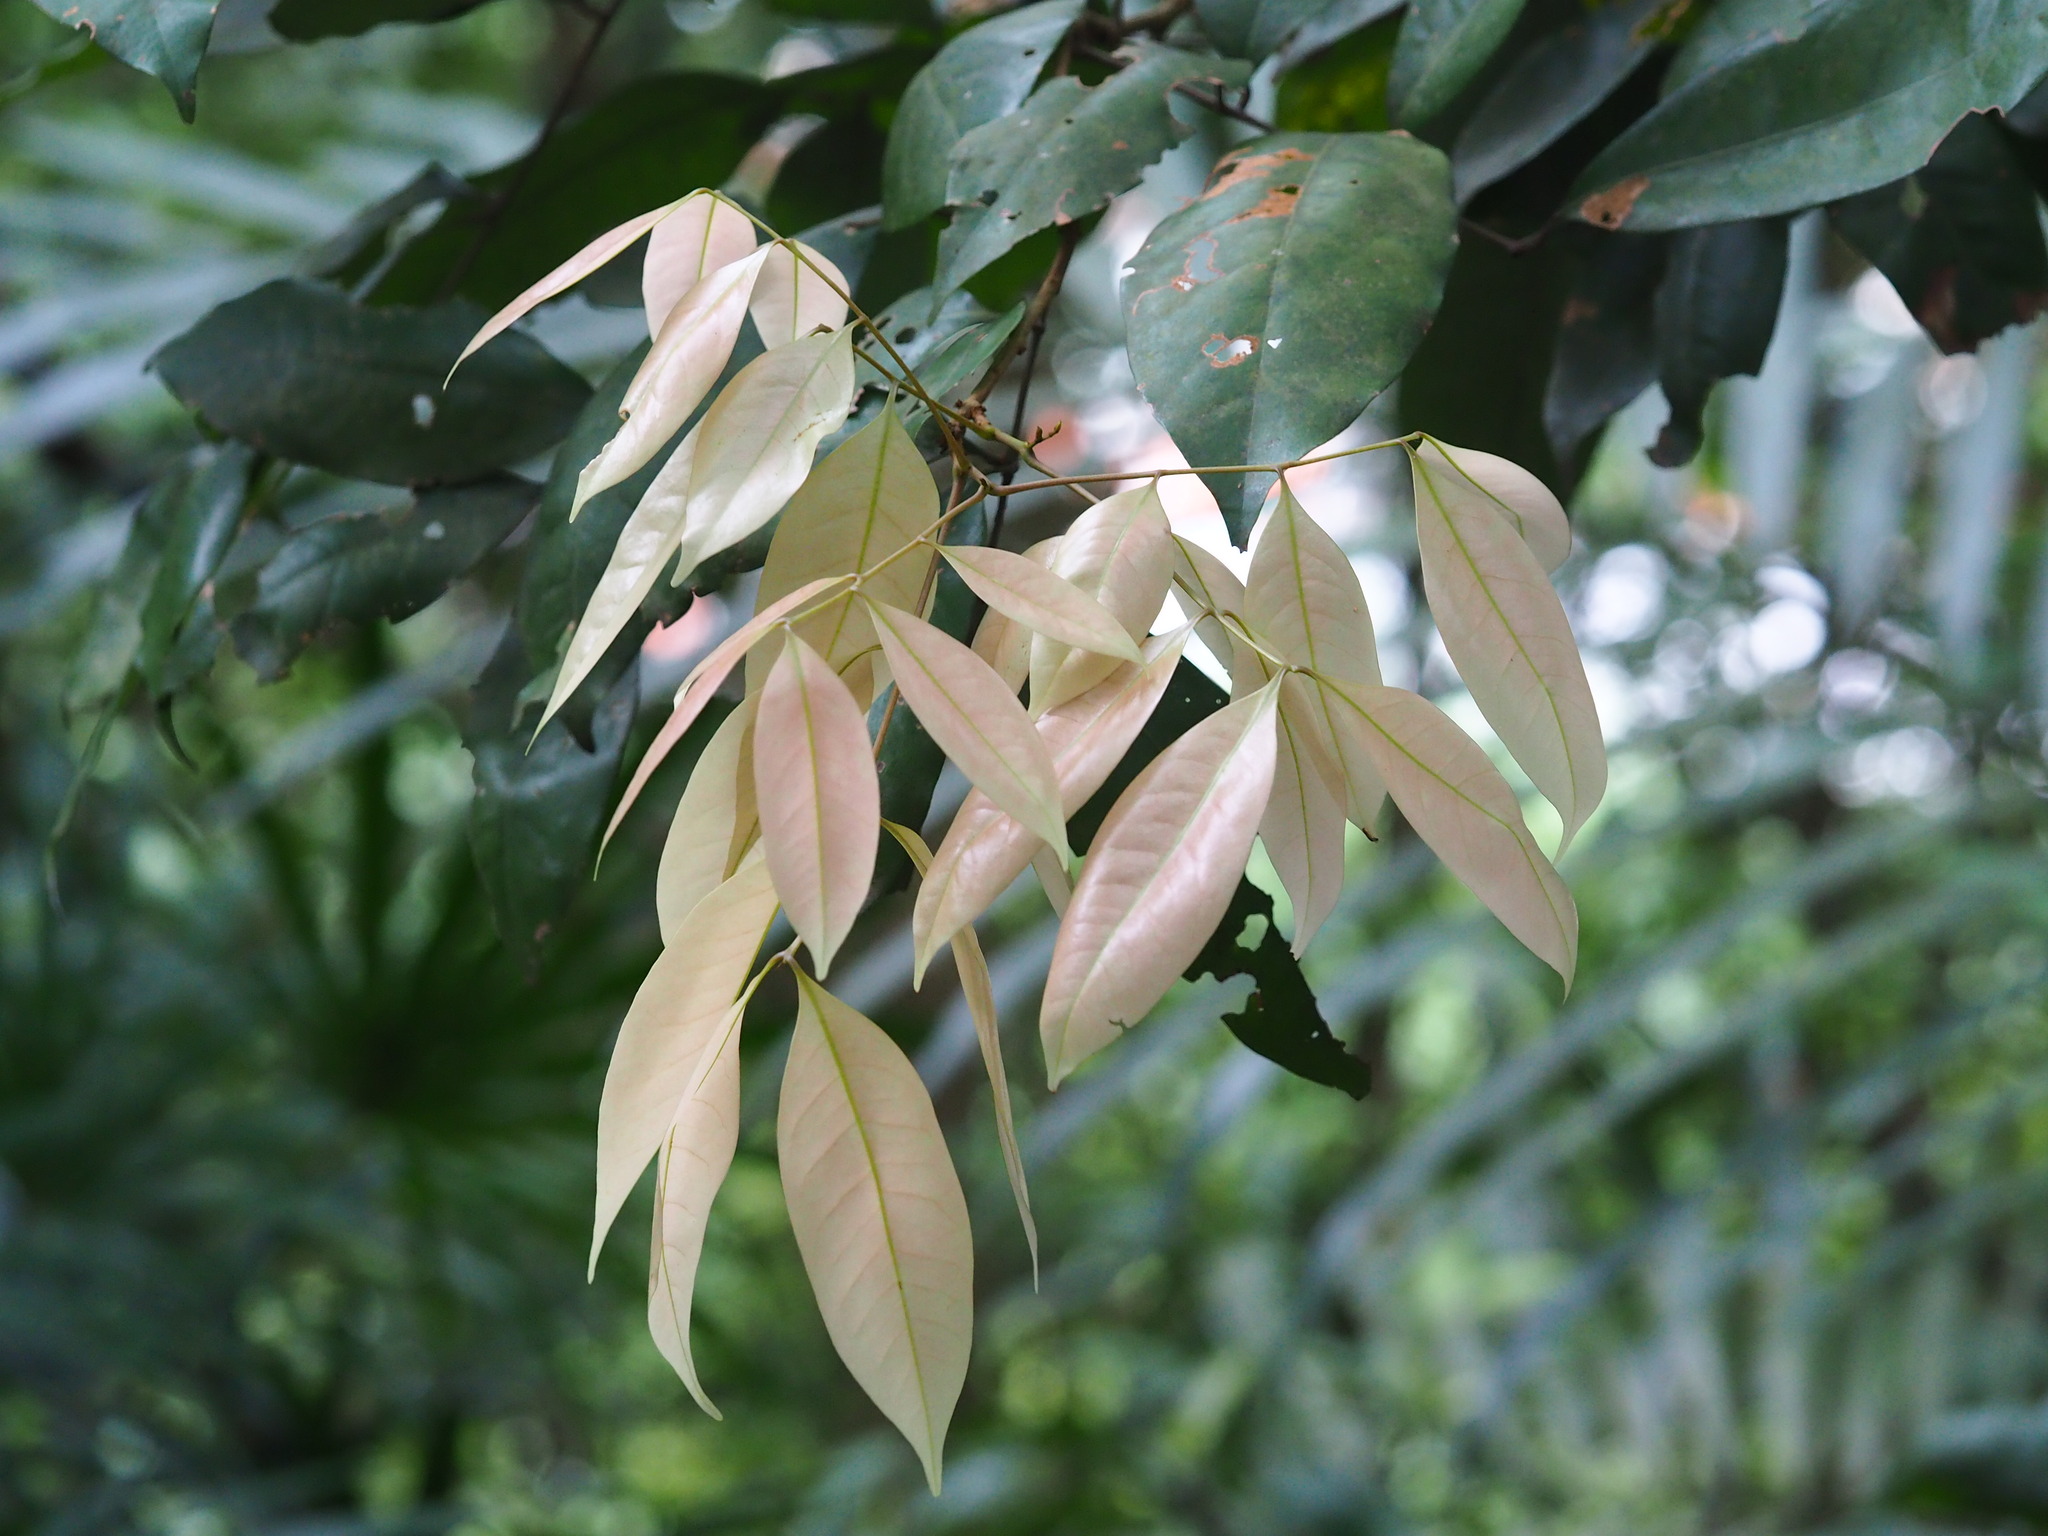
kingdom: Plantae
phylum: Tracheophyta
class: Magnoliopsida
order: Sapindales
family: Sapindaceae
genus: Dimocarpus
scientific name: Dimocarpus longan
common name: Longan
